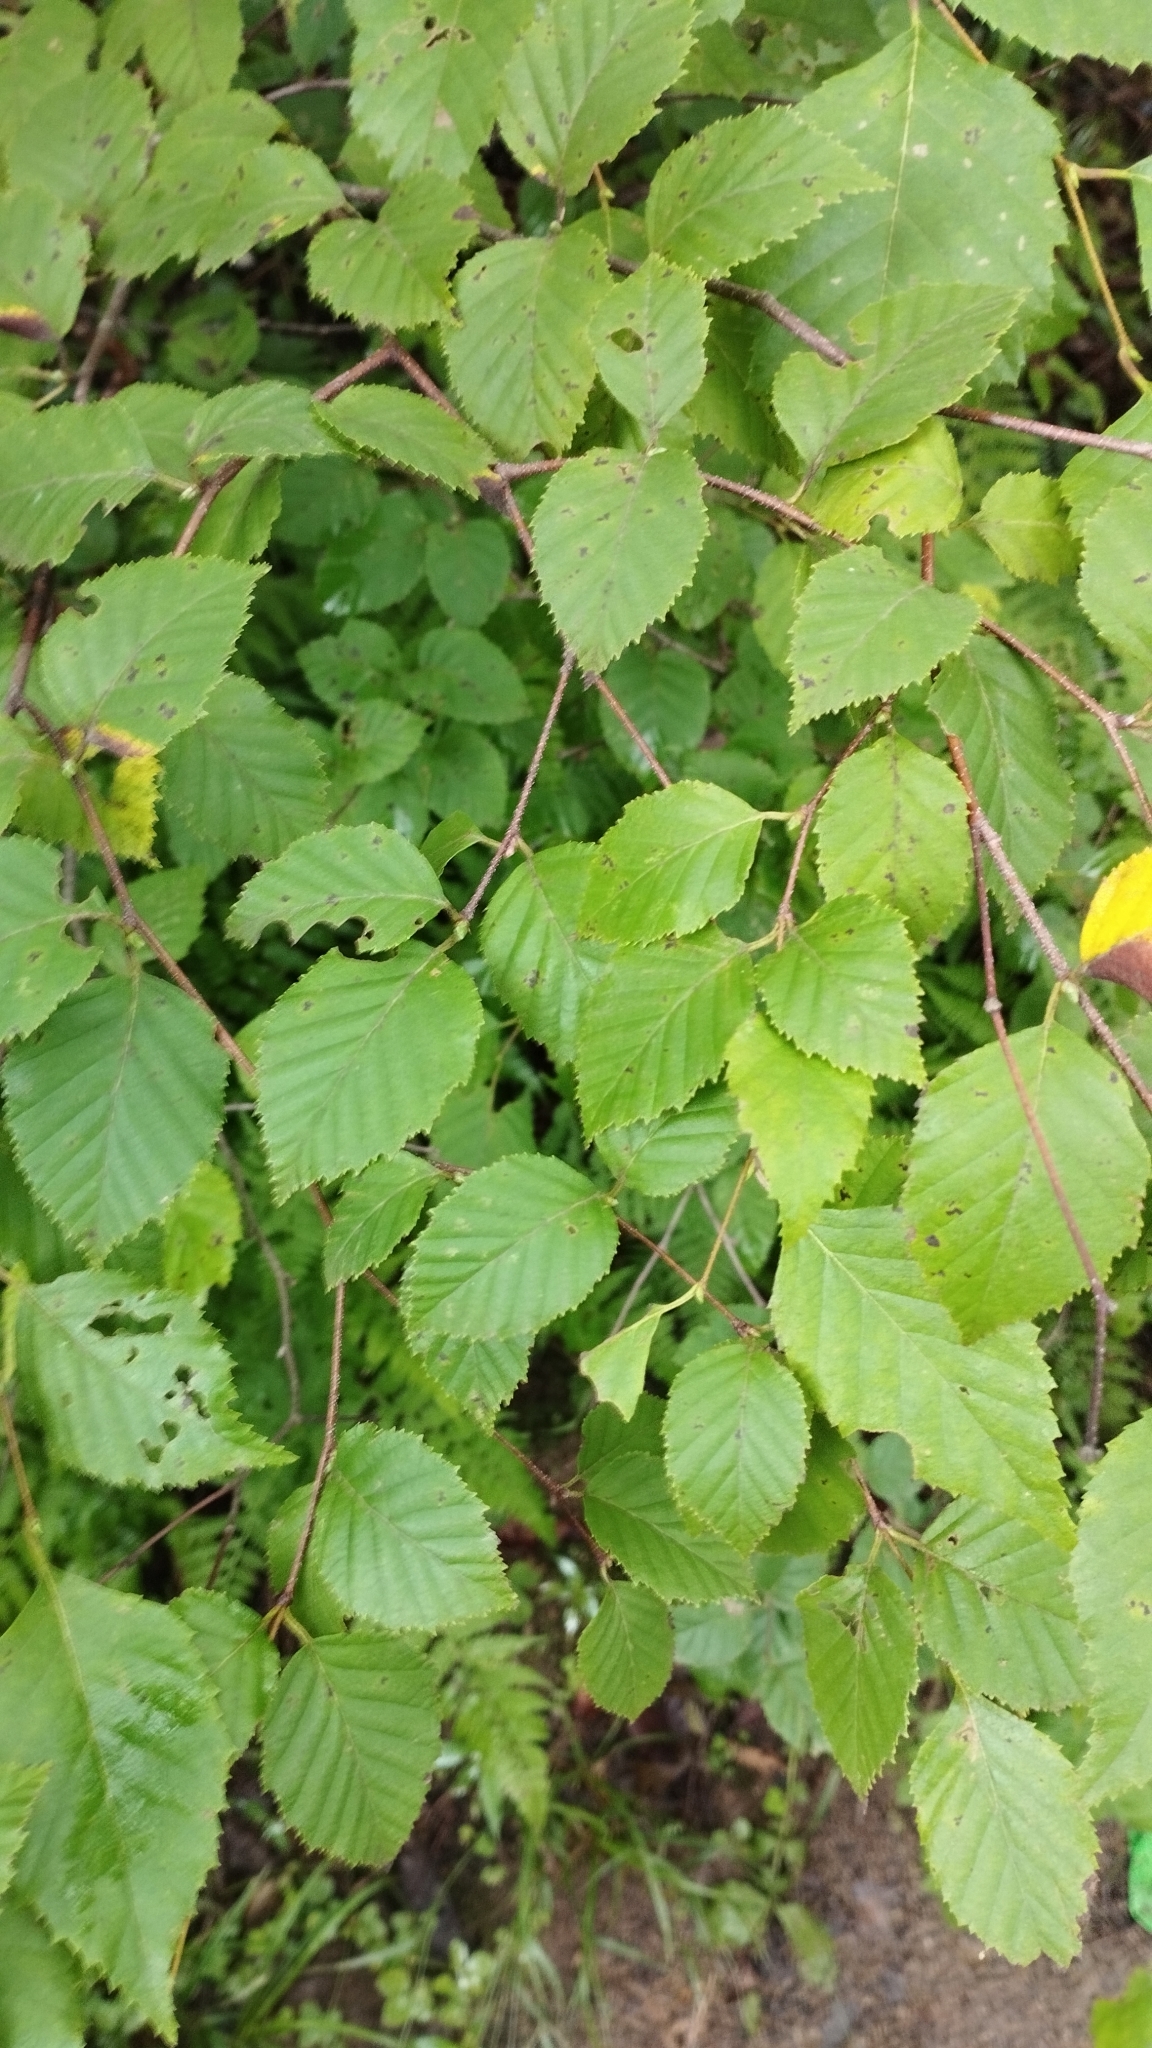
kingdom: Plantae
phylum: Tracheophyta
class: Magnoliopsida
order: Fagales
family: Betulaceae
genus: Betula
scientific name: Betula dauurica
